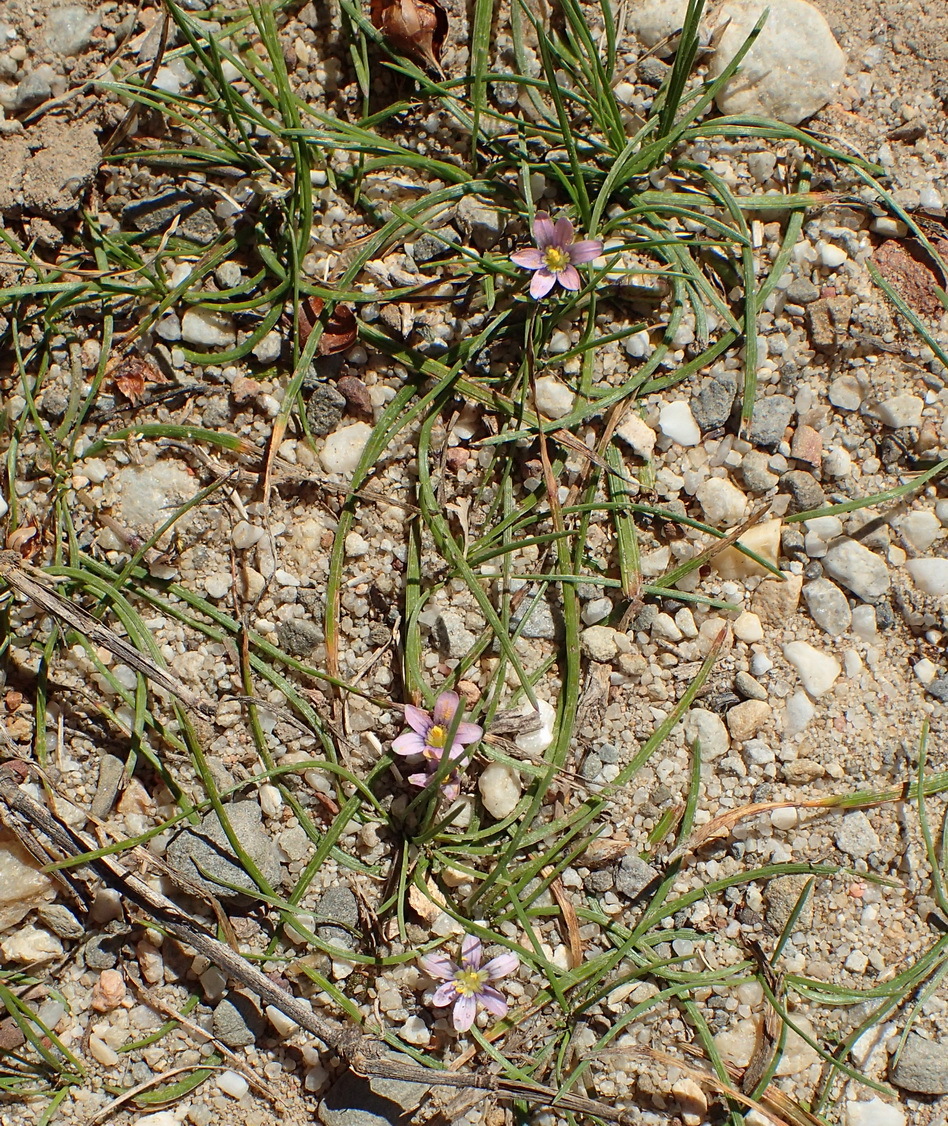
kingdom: Plantae
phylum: Tracheophyta
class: Liliopsida
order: Asparagales
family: Iridaceae
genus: Romulea
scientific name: Romulea minutiflora
